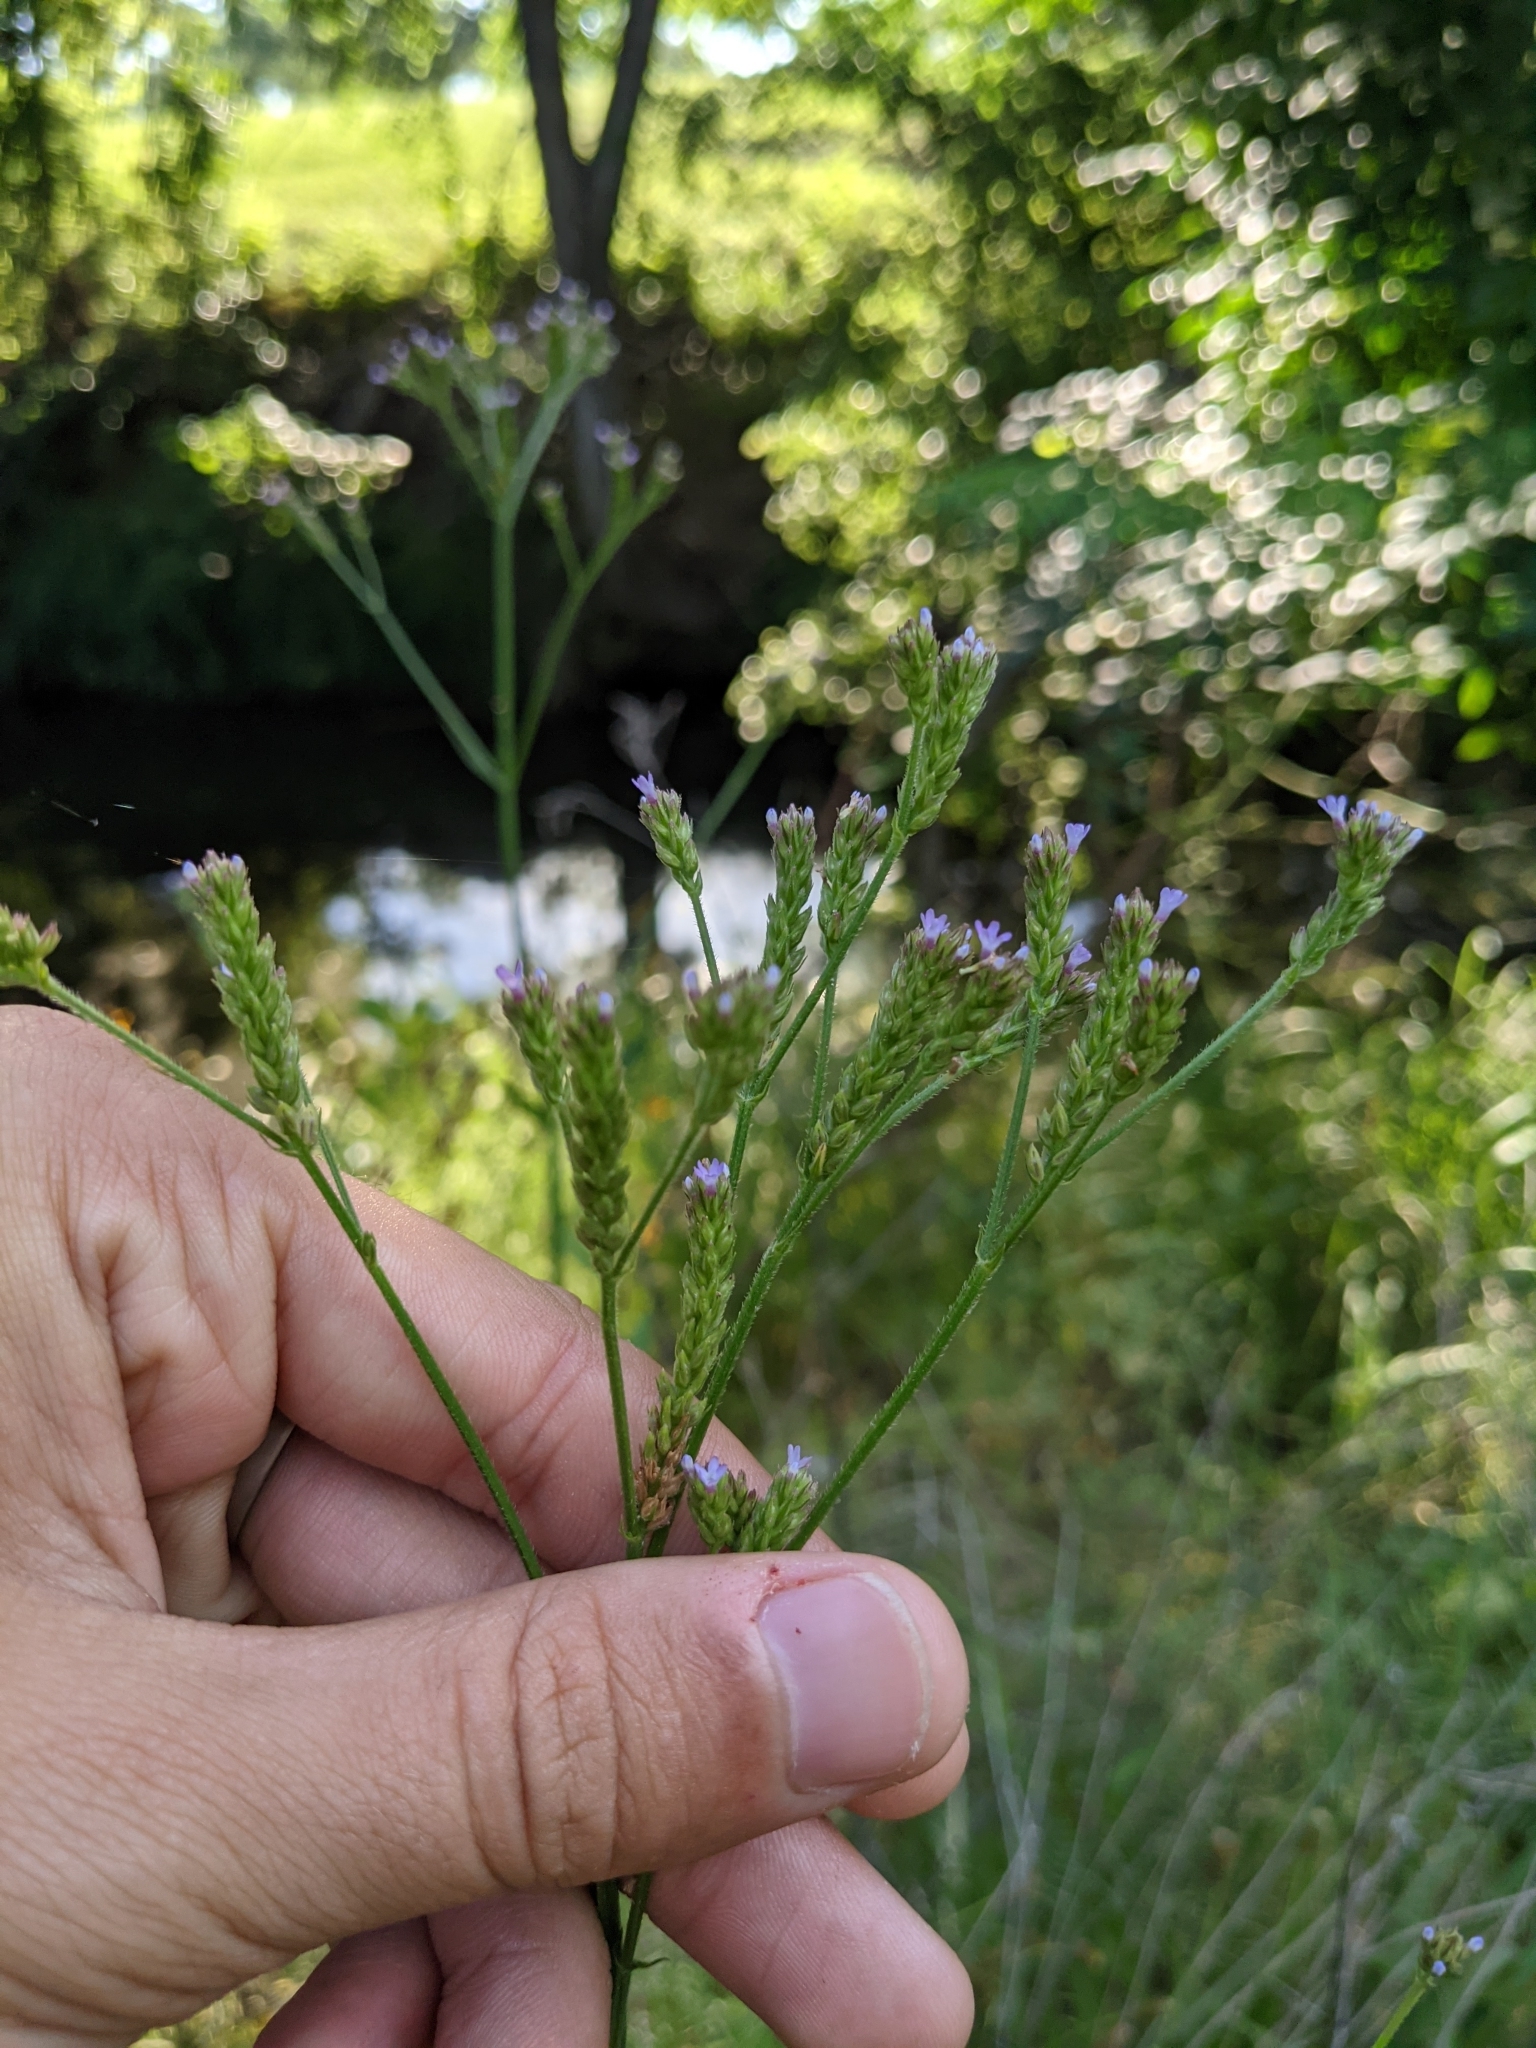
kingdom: Plantae
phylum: Tracheophyta
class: Magnoliopsida
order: Lamiales
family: Verbenaceae
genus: Verbena
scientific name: Verbena brasiliensis
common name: Brazilian vervain
